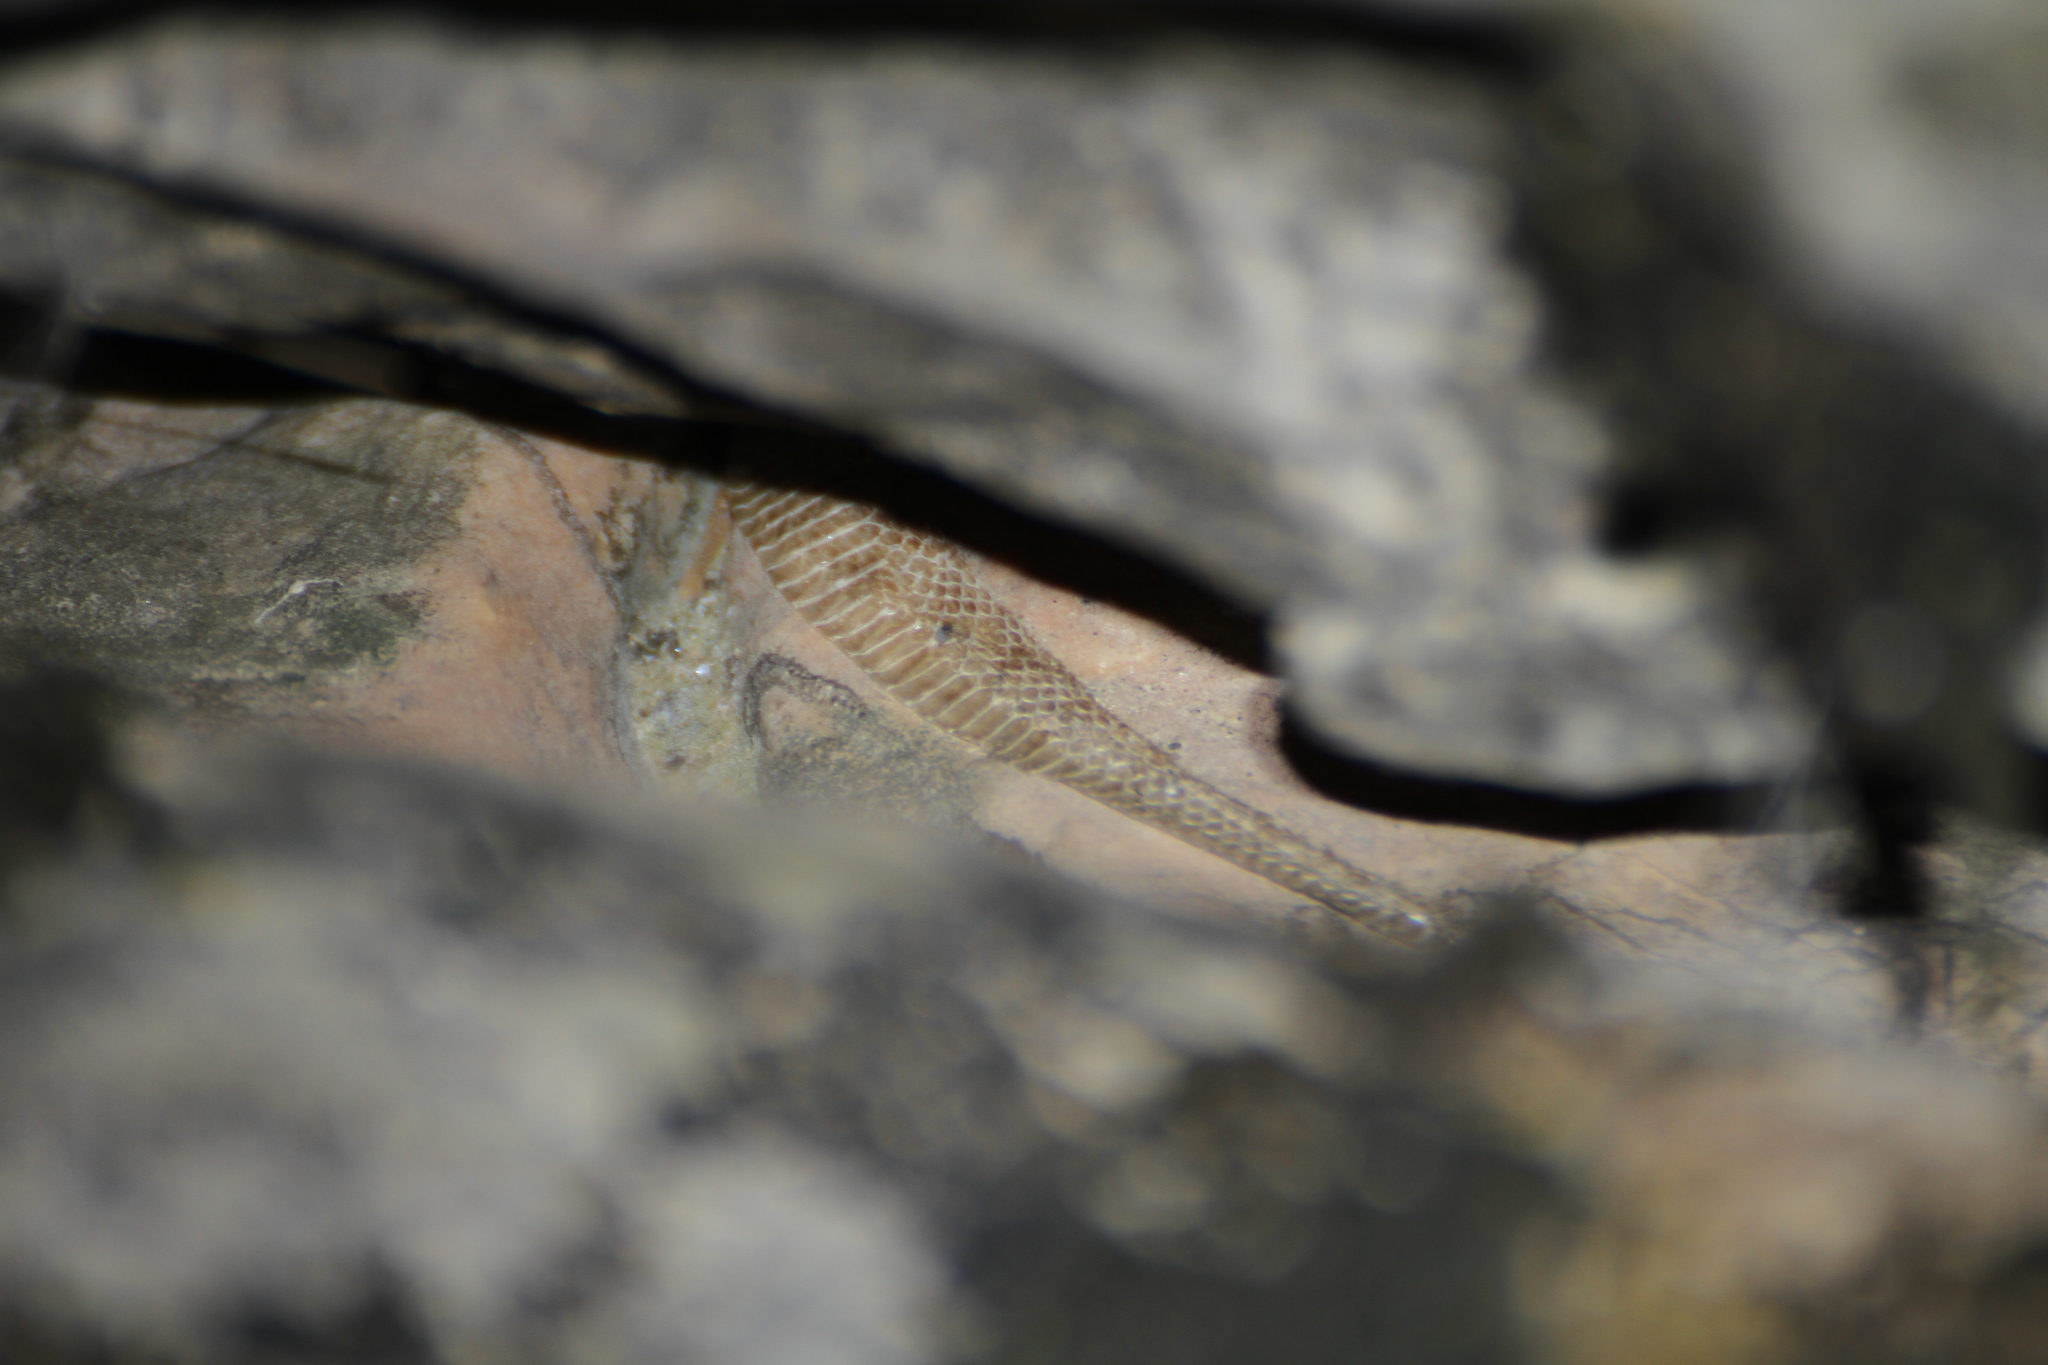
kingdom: Animalia
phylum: Chordata
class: Squamata
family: Colubridae
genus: Natrix
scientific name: Natrix maura
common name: Viperine water snake
